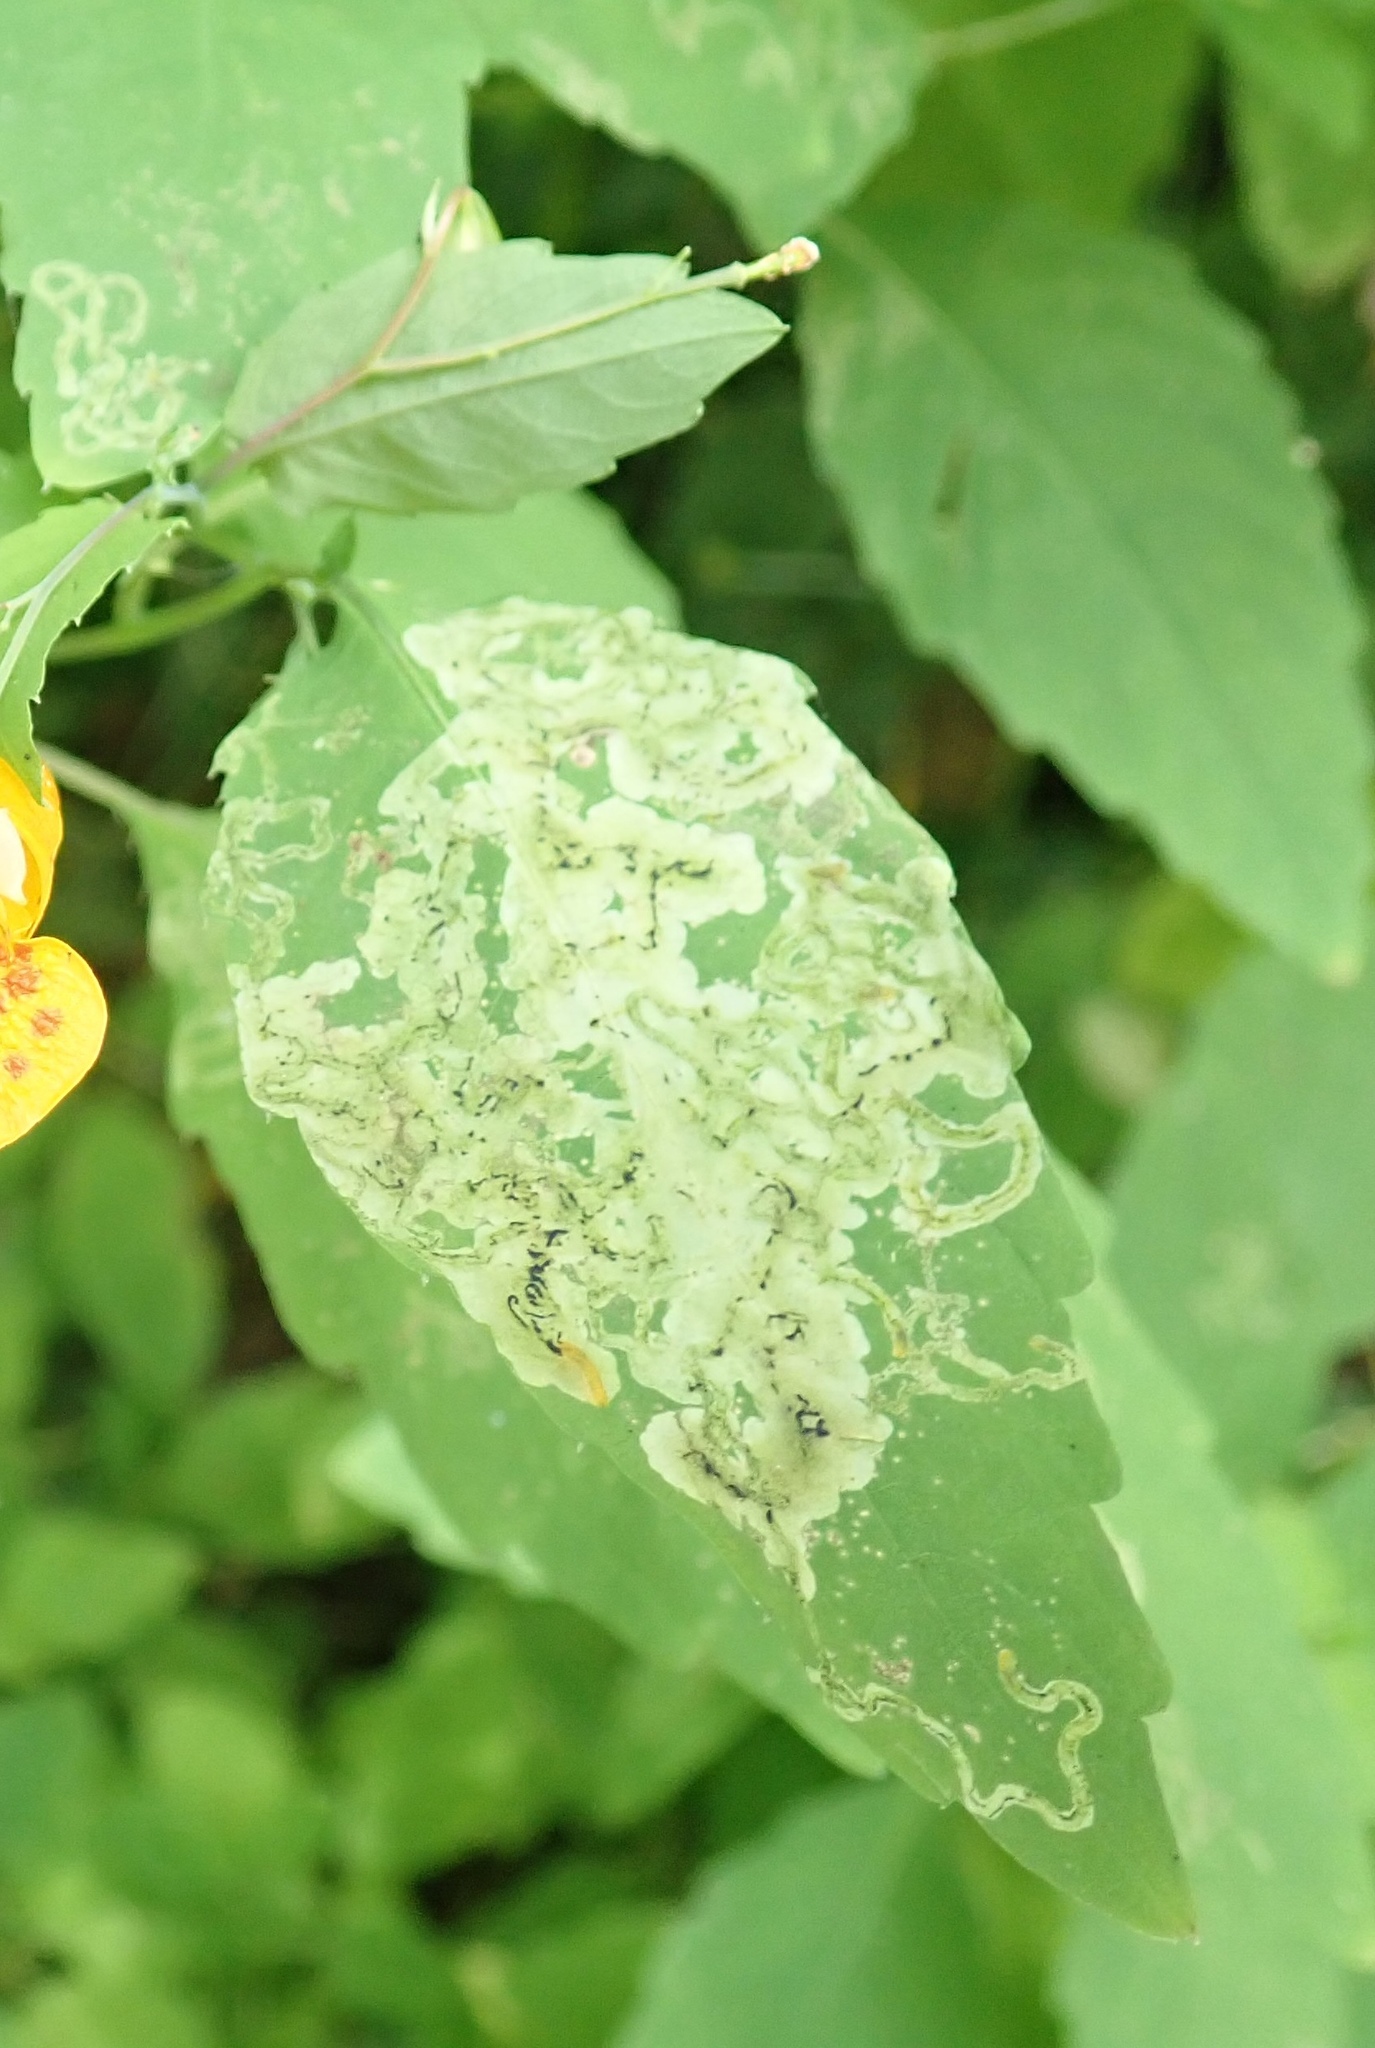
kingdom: Animalia
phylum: Arthropoda
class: Insecta
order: Diptera
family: Agromyzidae
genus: Phytoliriomyza
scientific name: Phytoliriomyza melampyga
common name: Jewelweed leaf-miner fly
